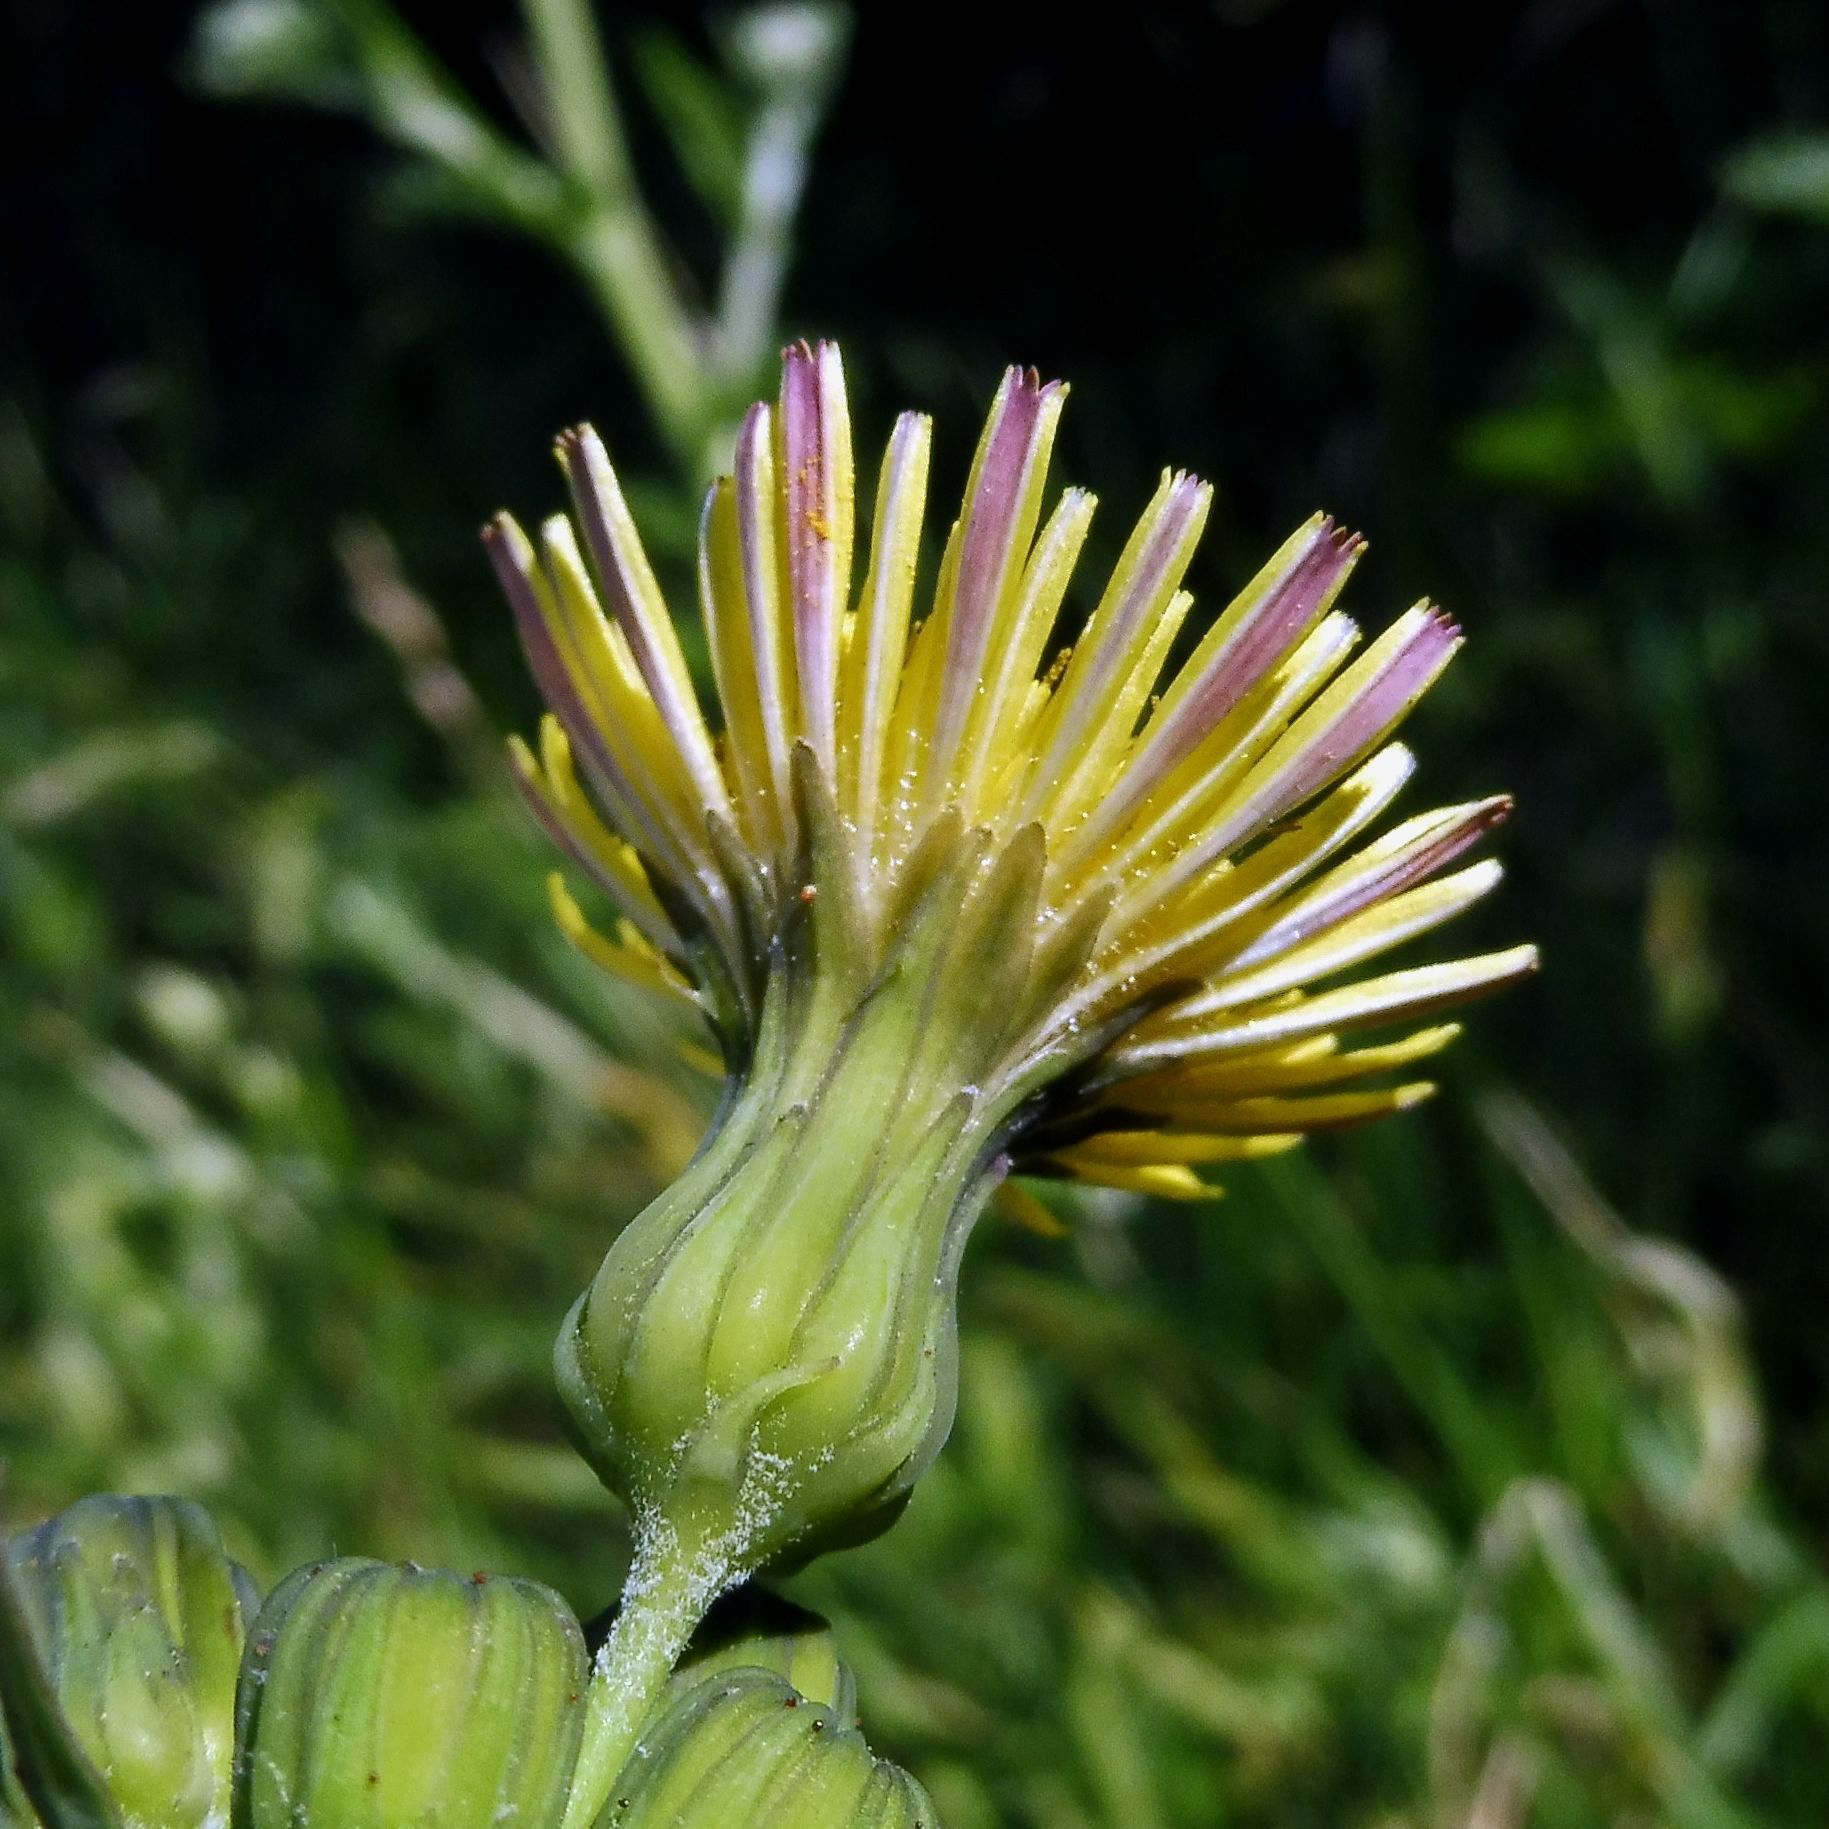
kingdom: Plantae
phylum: Tracheophyta
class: Magnoliopsida
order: Asterales
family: Asteraceae
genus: Sonchus
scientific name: Sonchus oleraceus
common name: Common sowthistle
